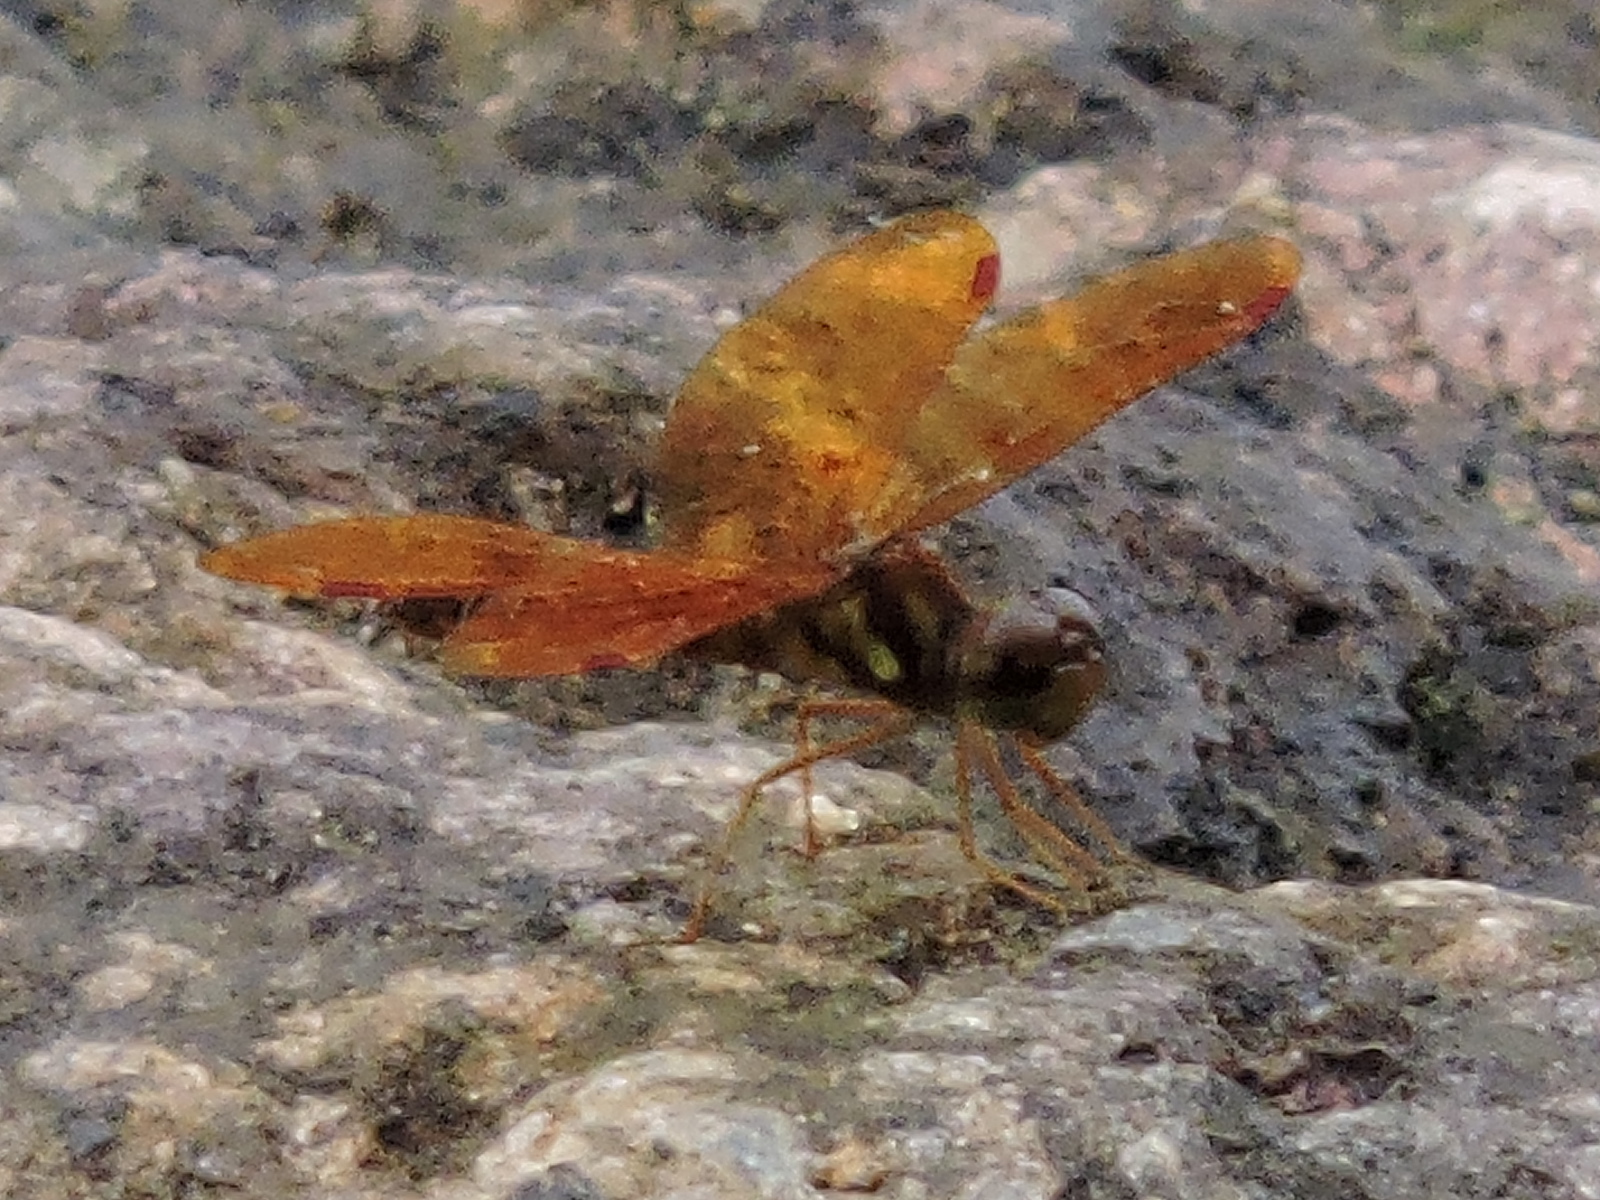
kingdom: Animalia
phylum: Arthropoda
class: Insecta
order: Odonata
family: Libellulidae
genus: Perithemis
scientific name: Perithemis tenera
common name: Eastern amberwing
